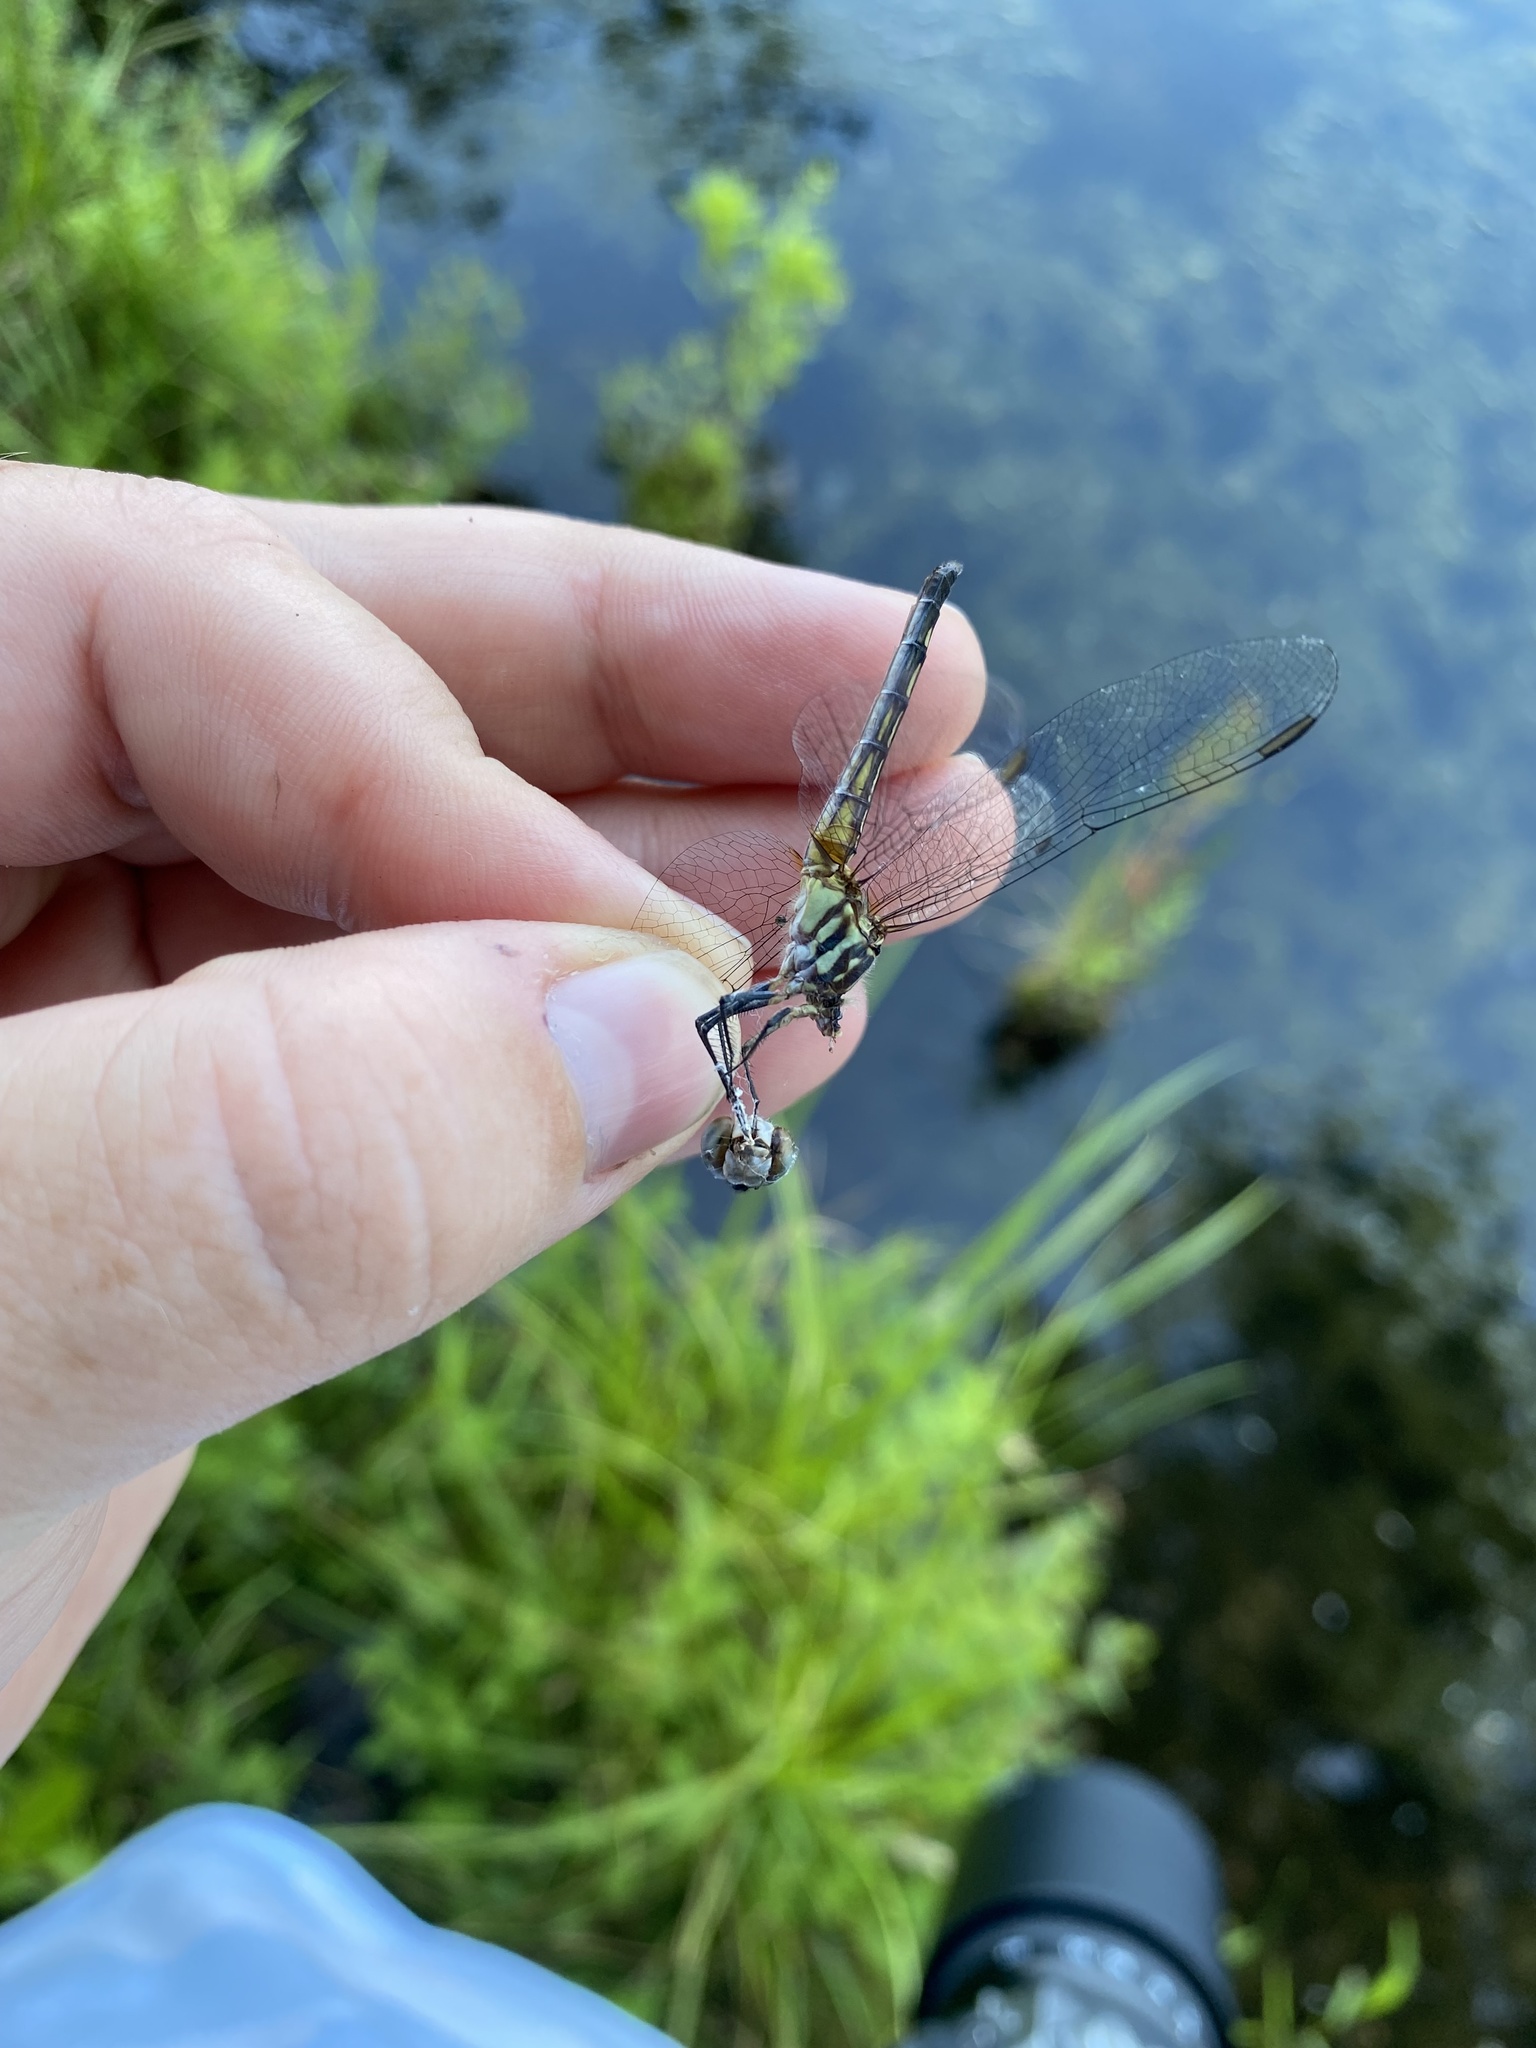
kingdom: Animalia
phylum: Arthropoda
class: Insecta
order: Odonata
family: Libellulidae
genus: Pachydiplax
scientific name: Pachydiplax longipennis
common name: Blue dasher
